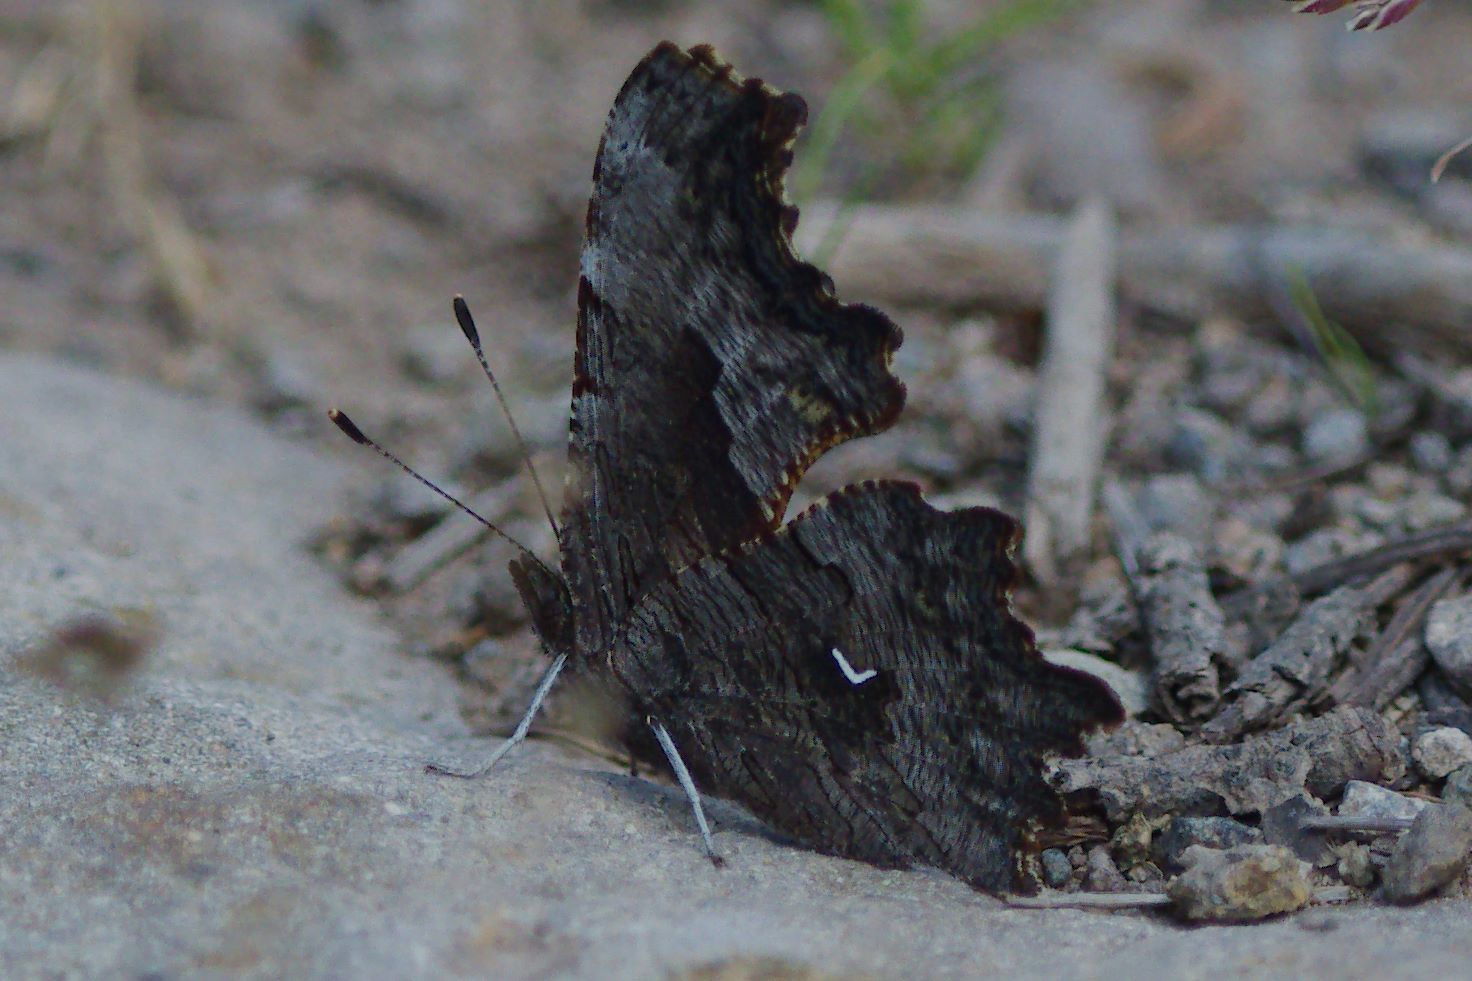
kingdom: Animalia
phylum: Arthropoda
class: Insecta
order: Lepidoptera
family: Nymphalidae
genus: Polygonia
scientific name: Polygonia gracilis
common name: Hoary comma
